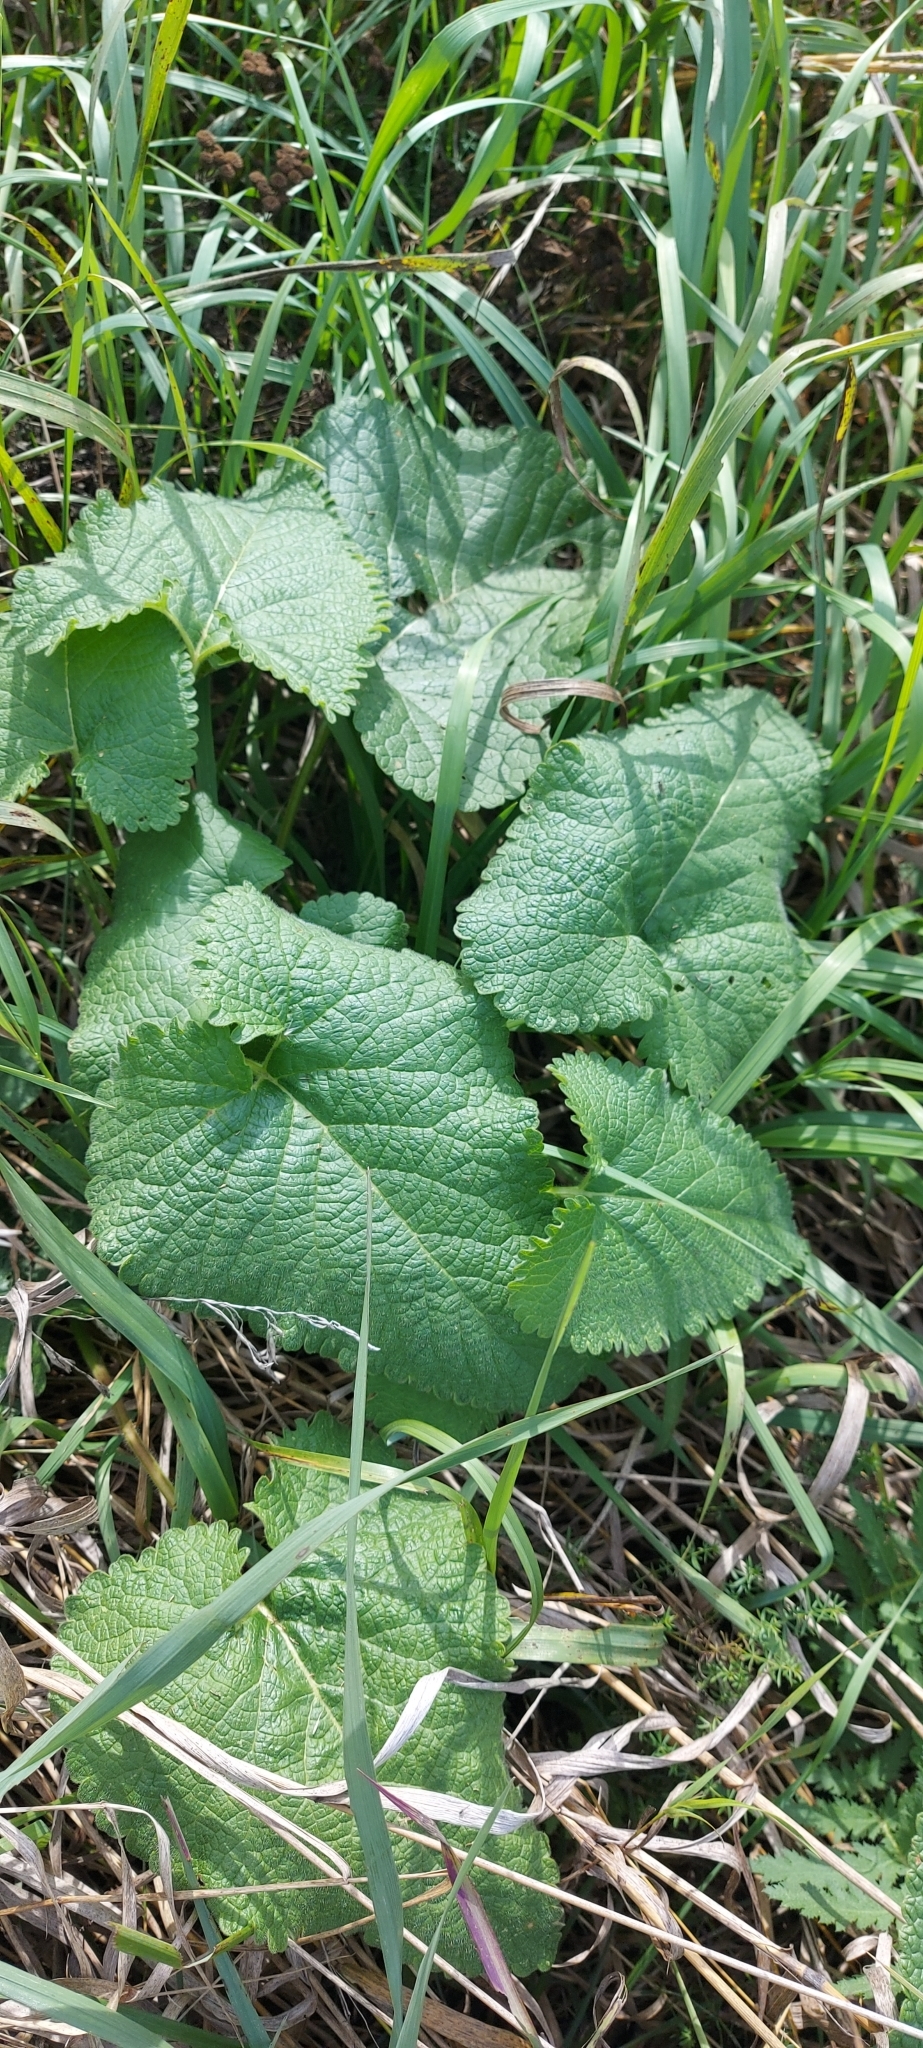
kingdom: Plantae
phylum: Tracheophyta
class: Magnoliopsida
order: Lamiales
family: Lamiaceae
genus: Phlomoides
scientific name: Phlomoides tuberosa
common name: Tuberous jerusalem sage
